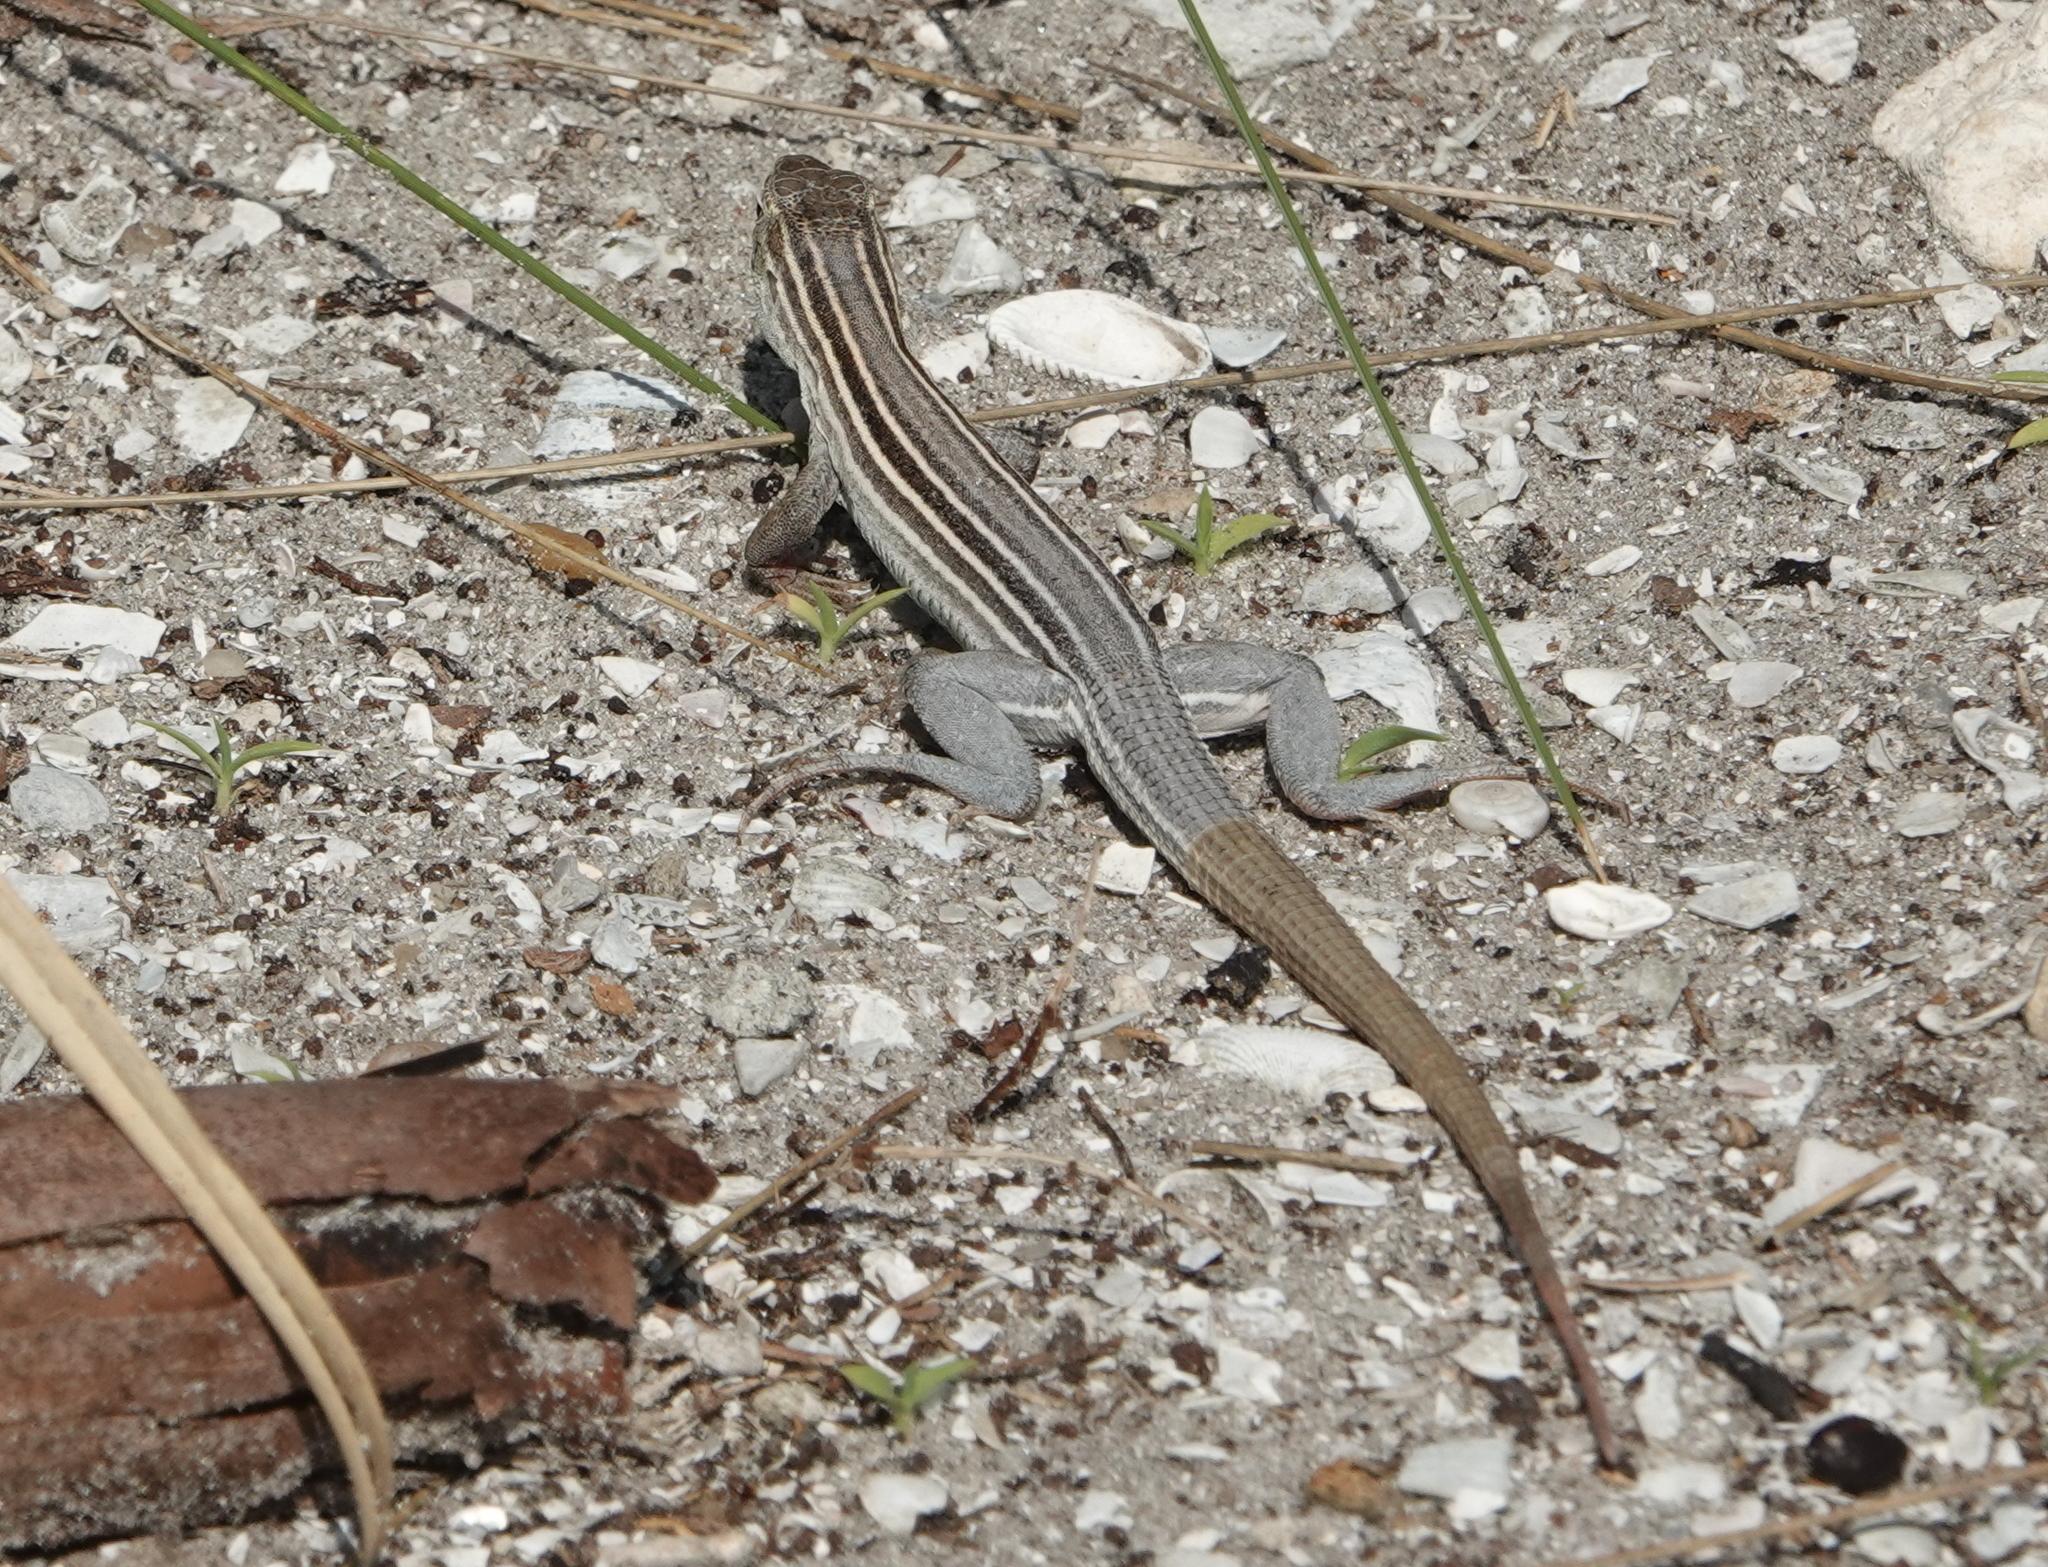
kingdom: Animalia
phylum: Chordata
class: Squamata
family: Teiidae
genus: Aspidoscelis
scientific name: Aspidoscelis sexlineatus
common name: Six-lined racerunner
